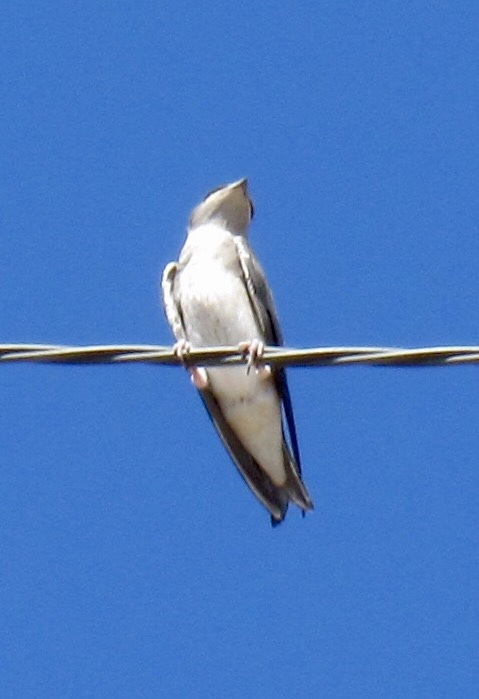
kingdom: Animalia
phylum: Chordata
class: Aves
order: Passeriformes
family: Hirundinidae
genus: Progne
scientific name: Progne subis
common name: Purple martin
